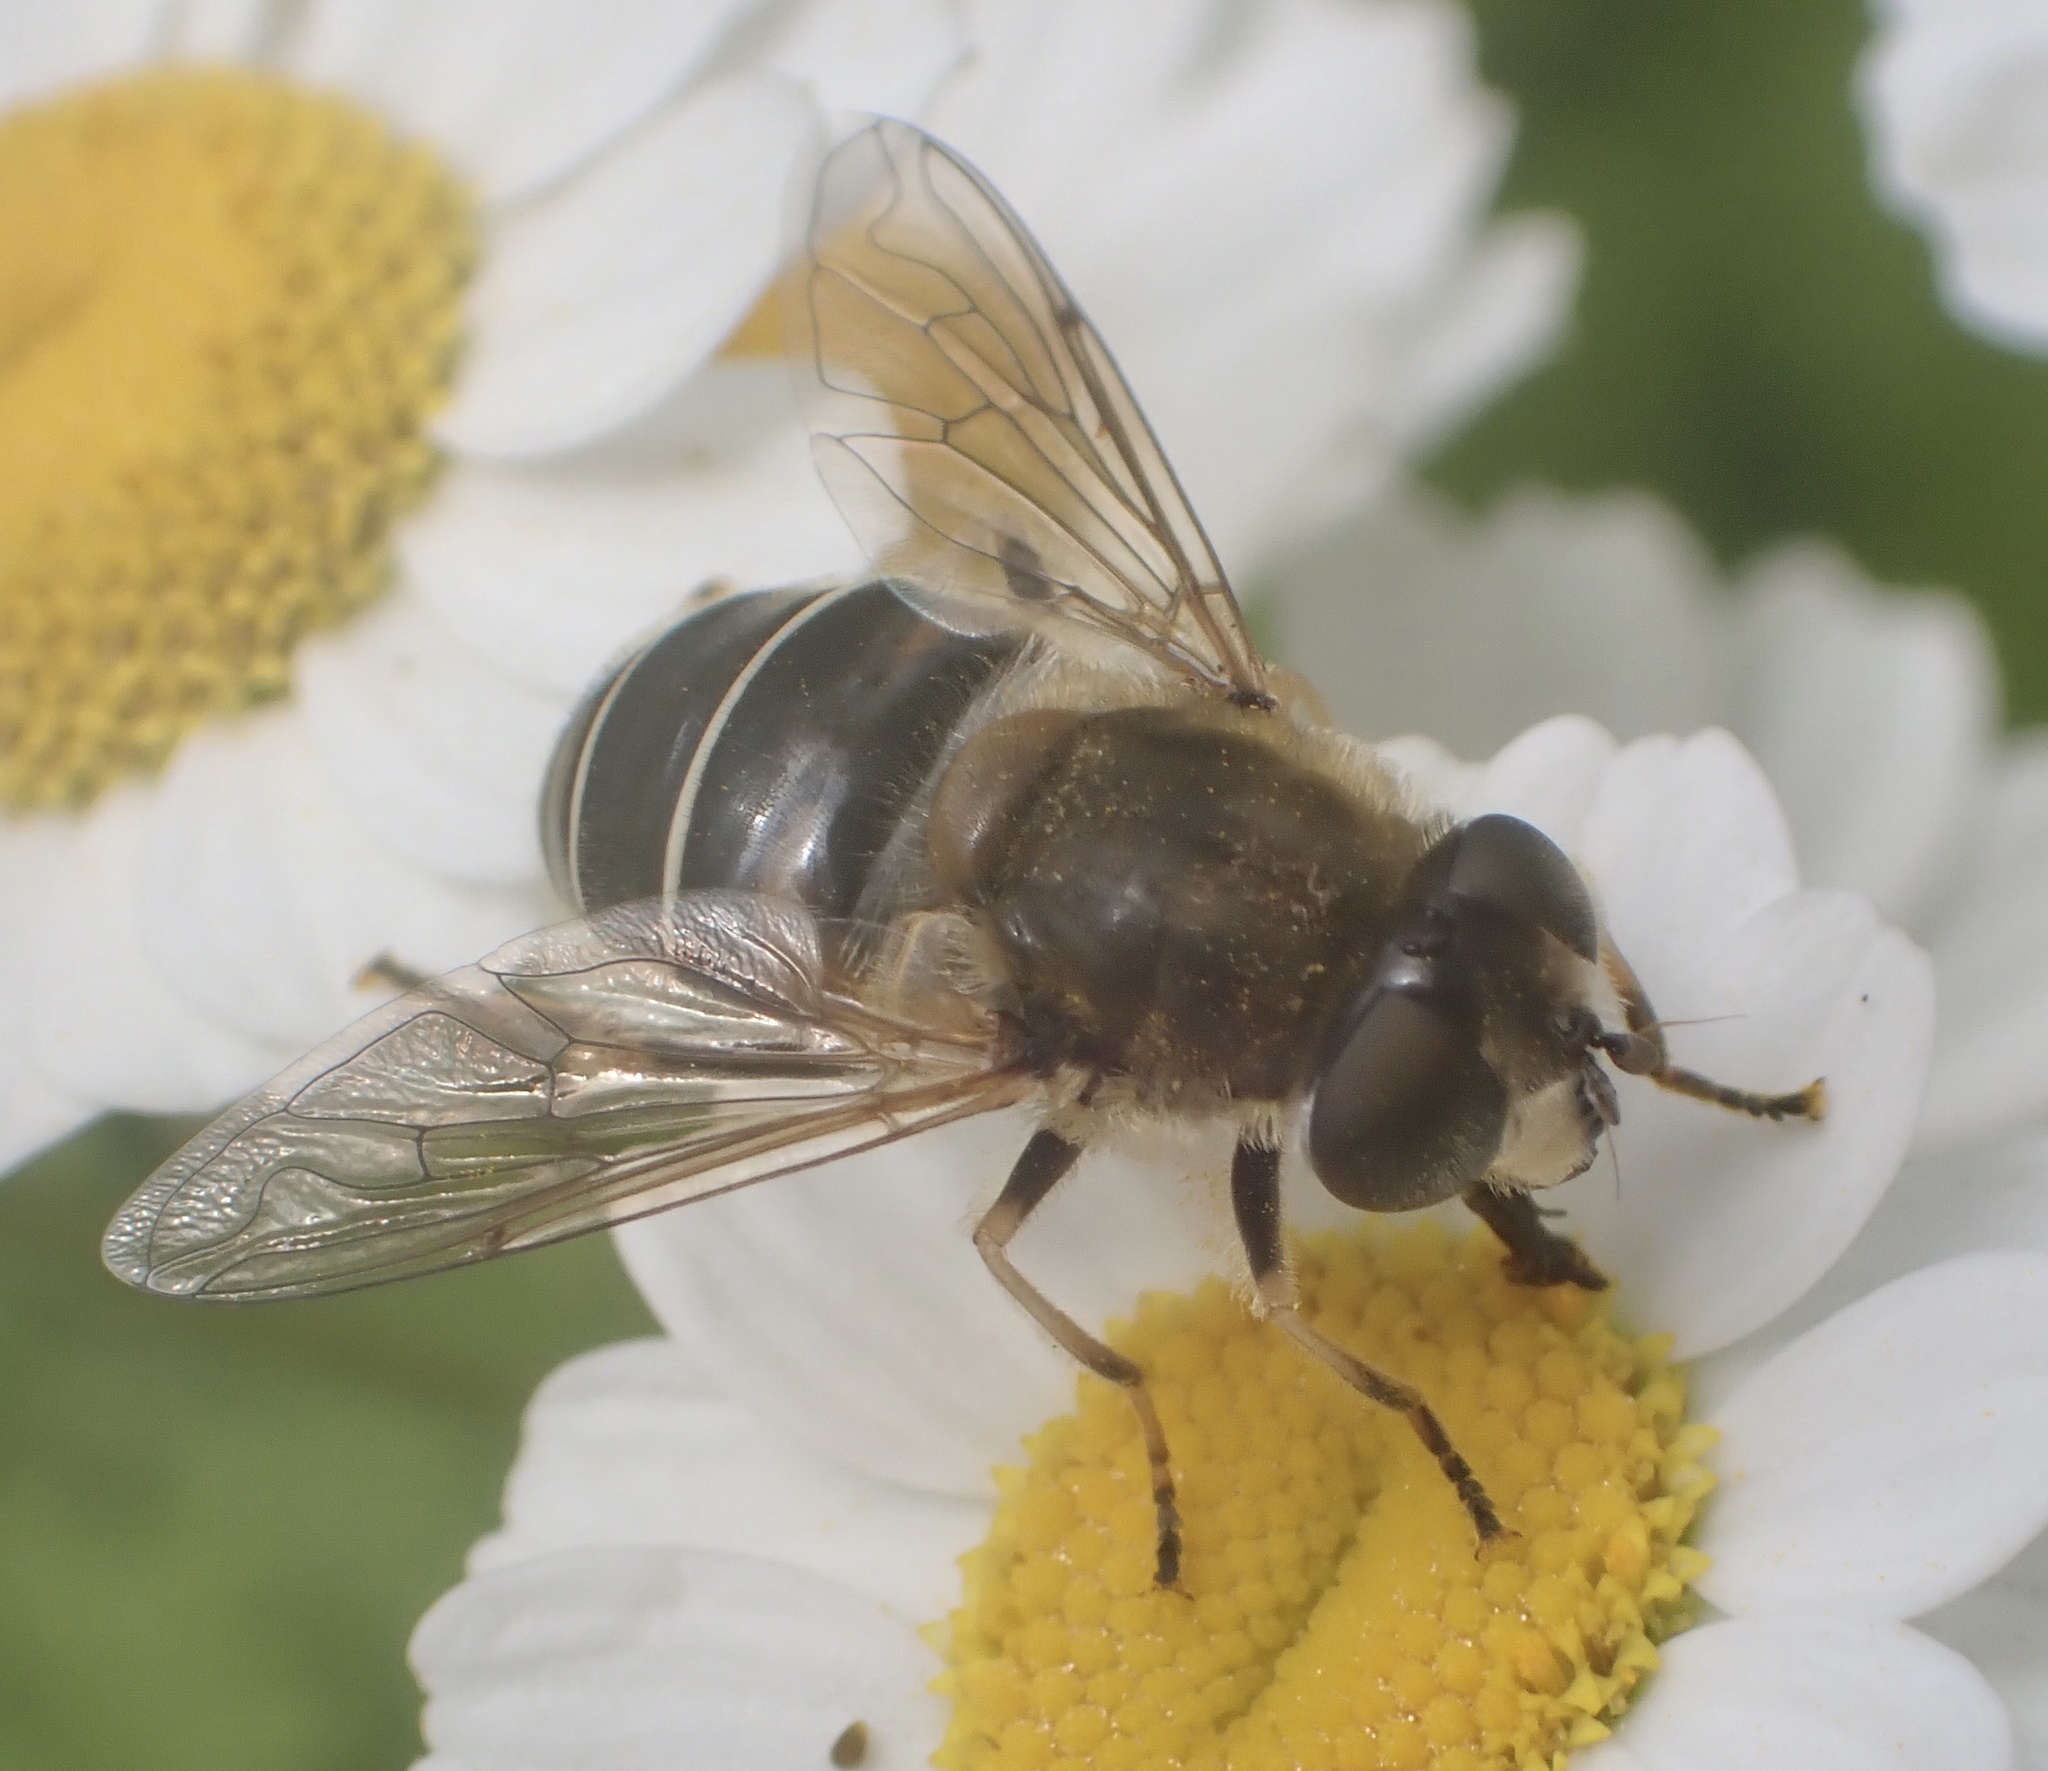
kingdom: Animalia
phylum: Arthropoda
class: Insecta
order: Diptera
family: Syrphidae
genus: Eristalis
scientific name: Eristalis nemorum
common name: Orange-spined drone fly
